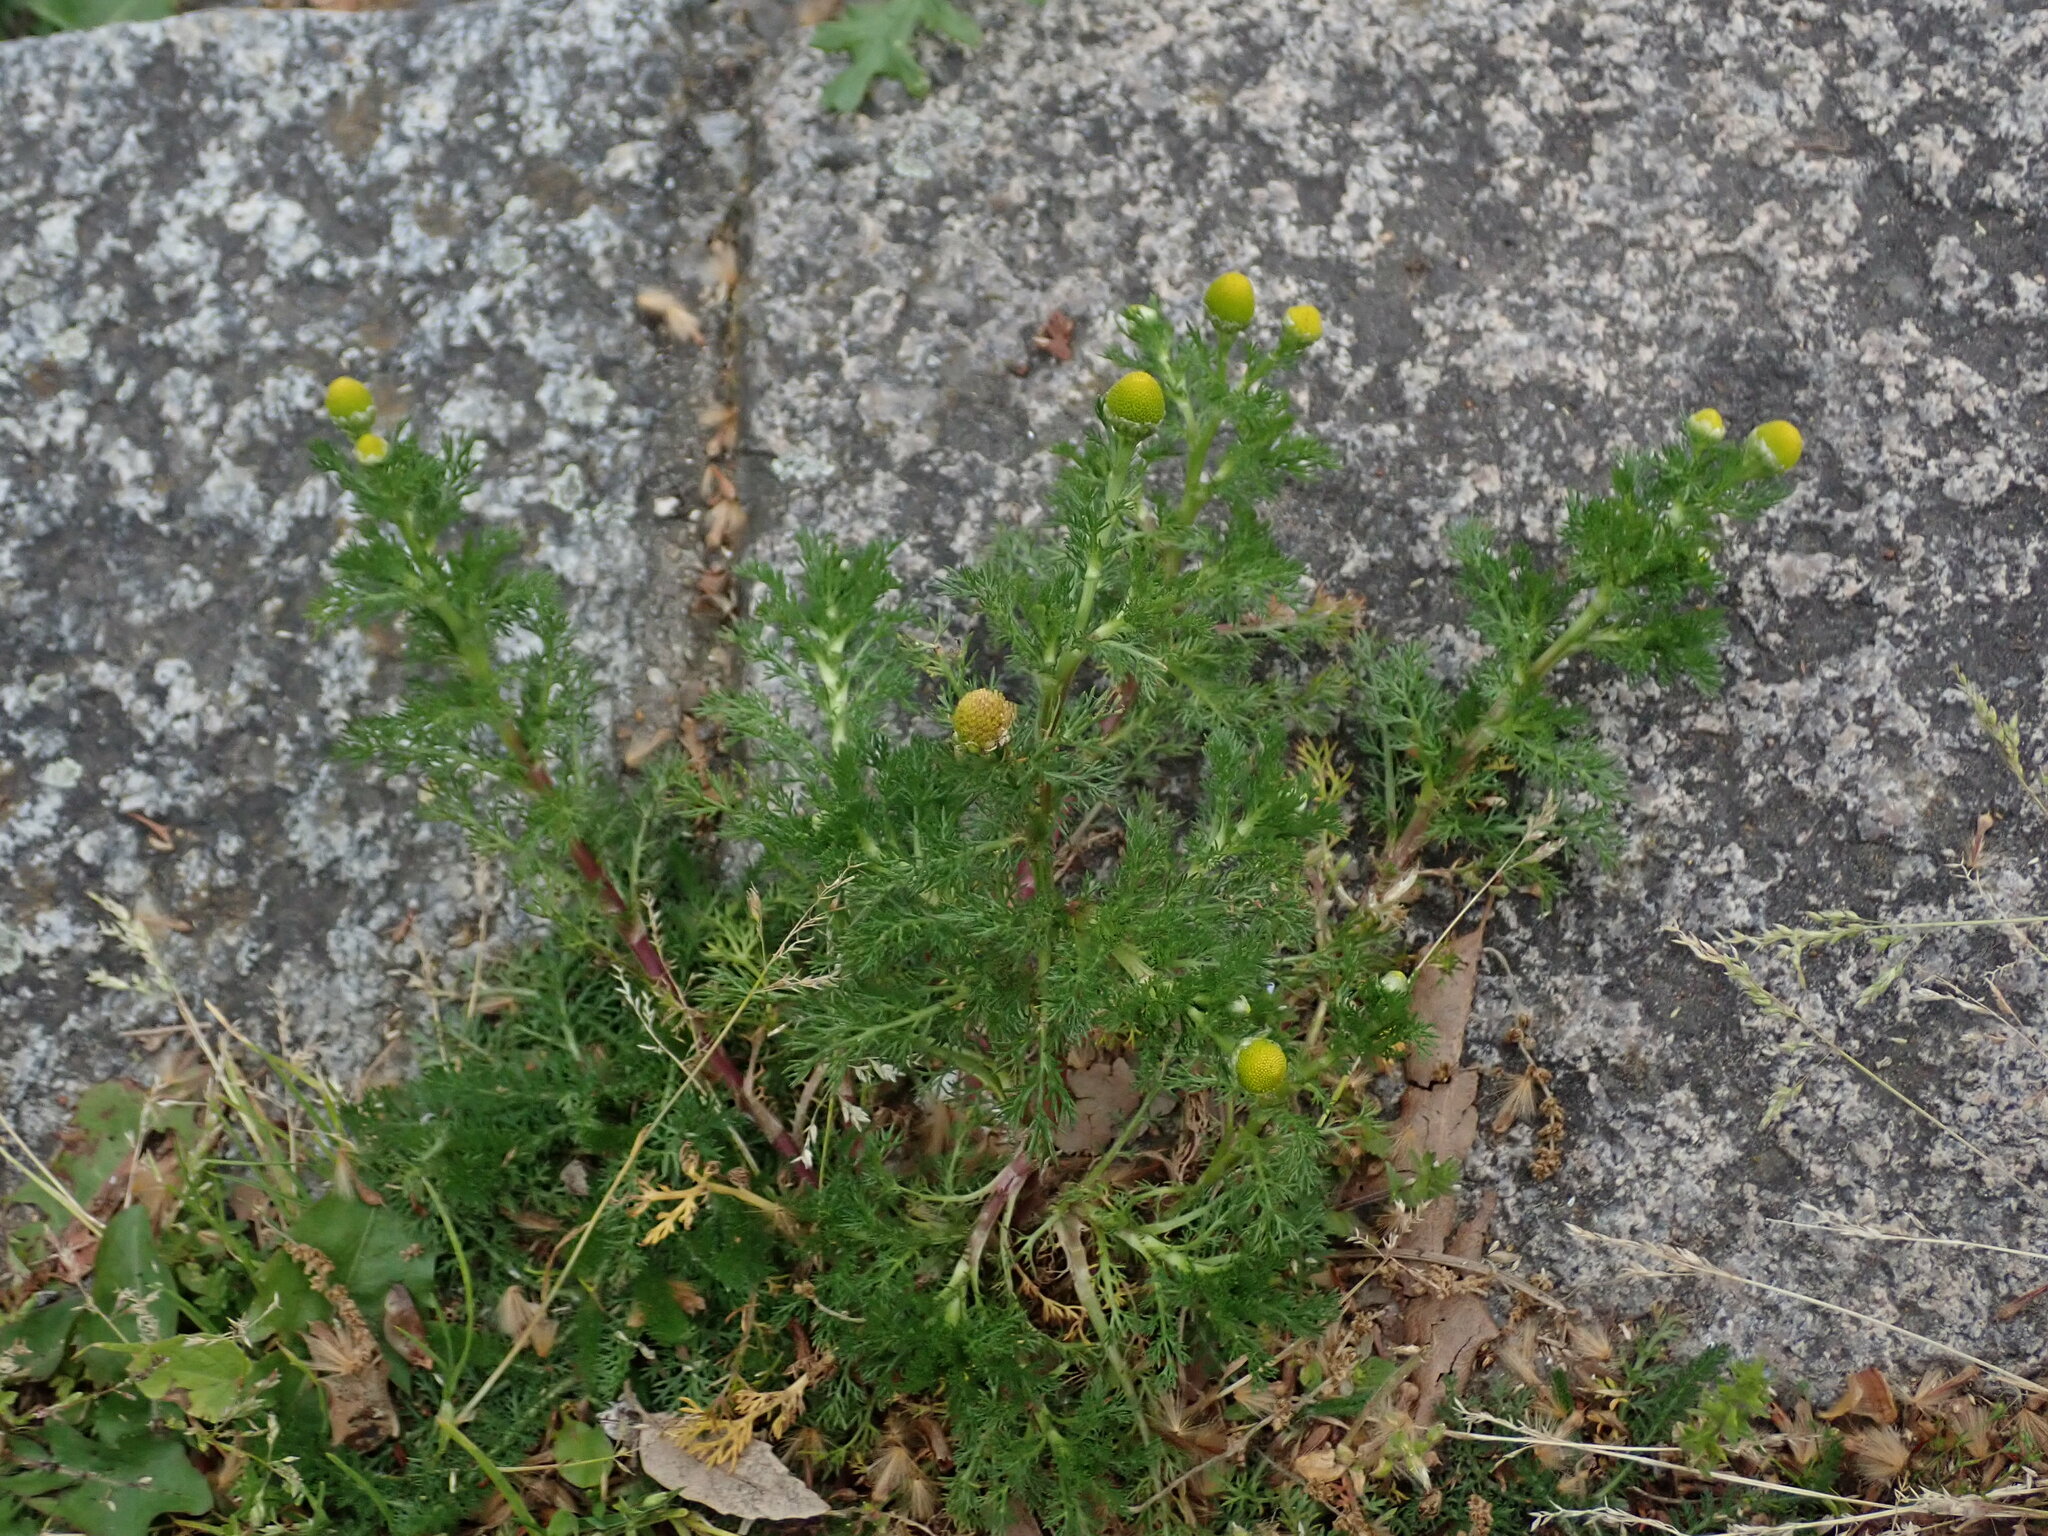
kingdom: Plantae
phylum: Tracheophyta
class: Magnoliopsida
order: Asterales
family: Asteraceae
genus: Matricaria
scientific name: Matricaria discoidea
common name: Disc mayweed
